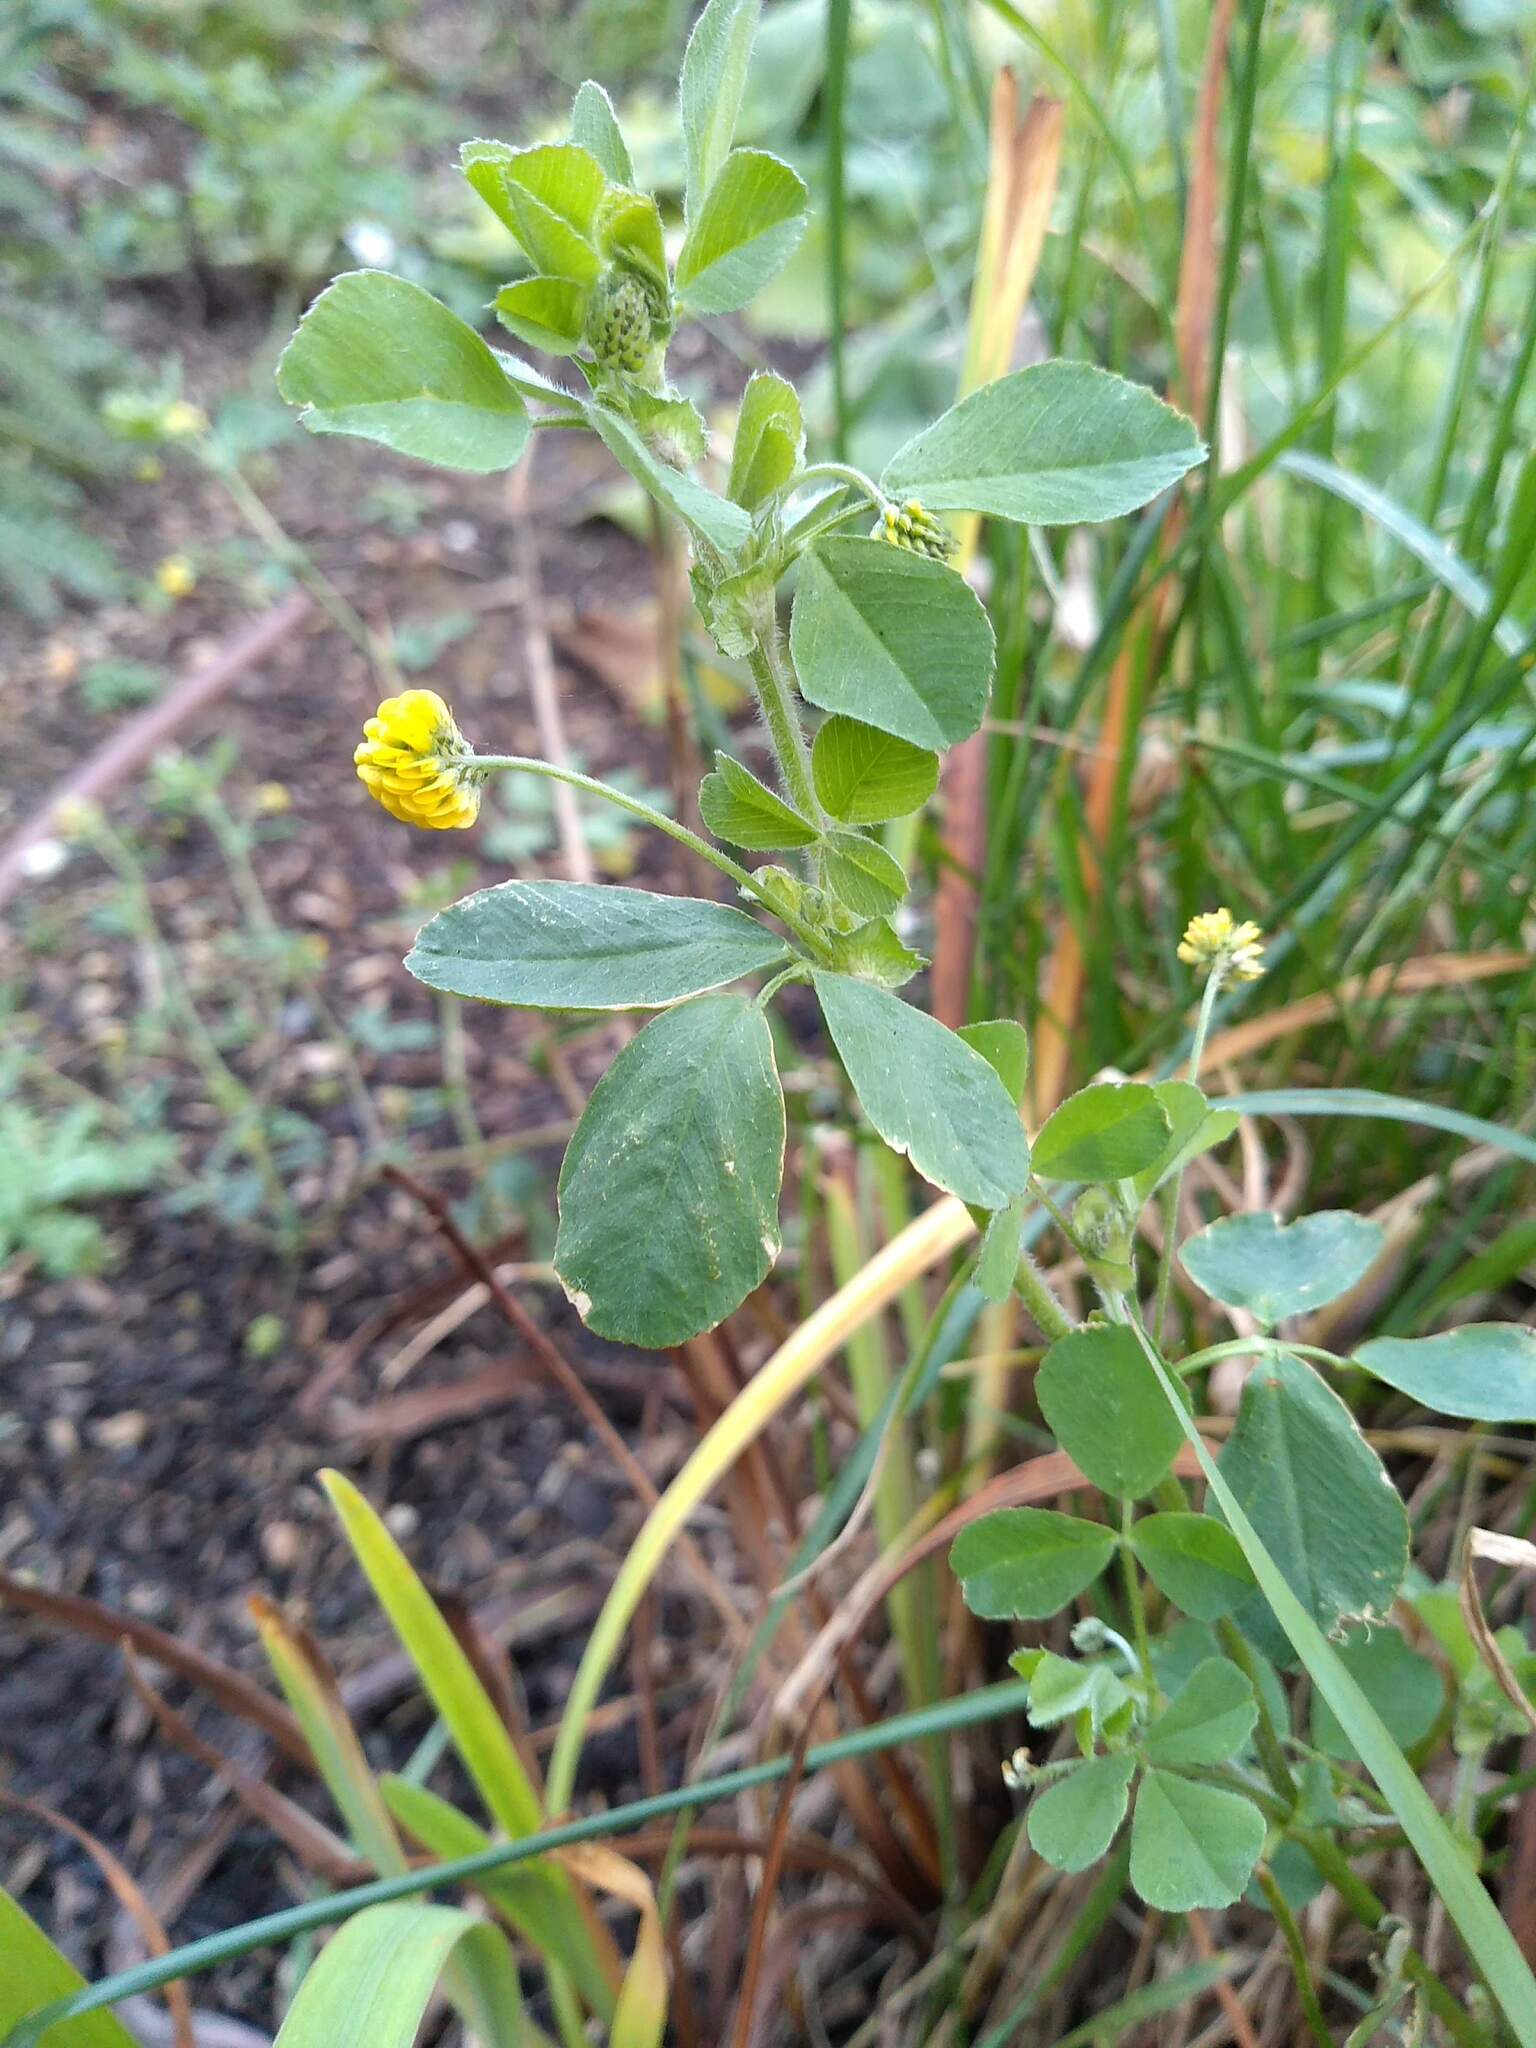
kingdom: Plantae
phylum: Tracheophyta
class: Magnoliopsida
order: Fabales
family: Fabaceae
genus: Medicago
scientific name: Medicago lupulina
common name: Black medick
